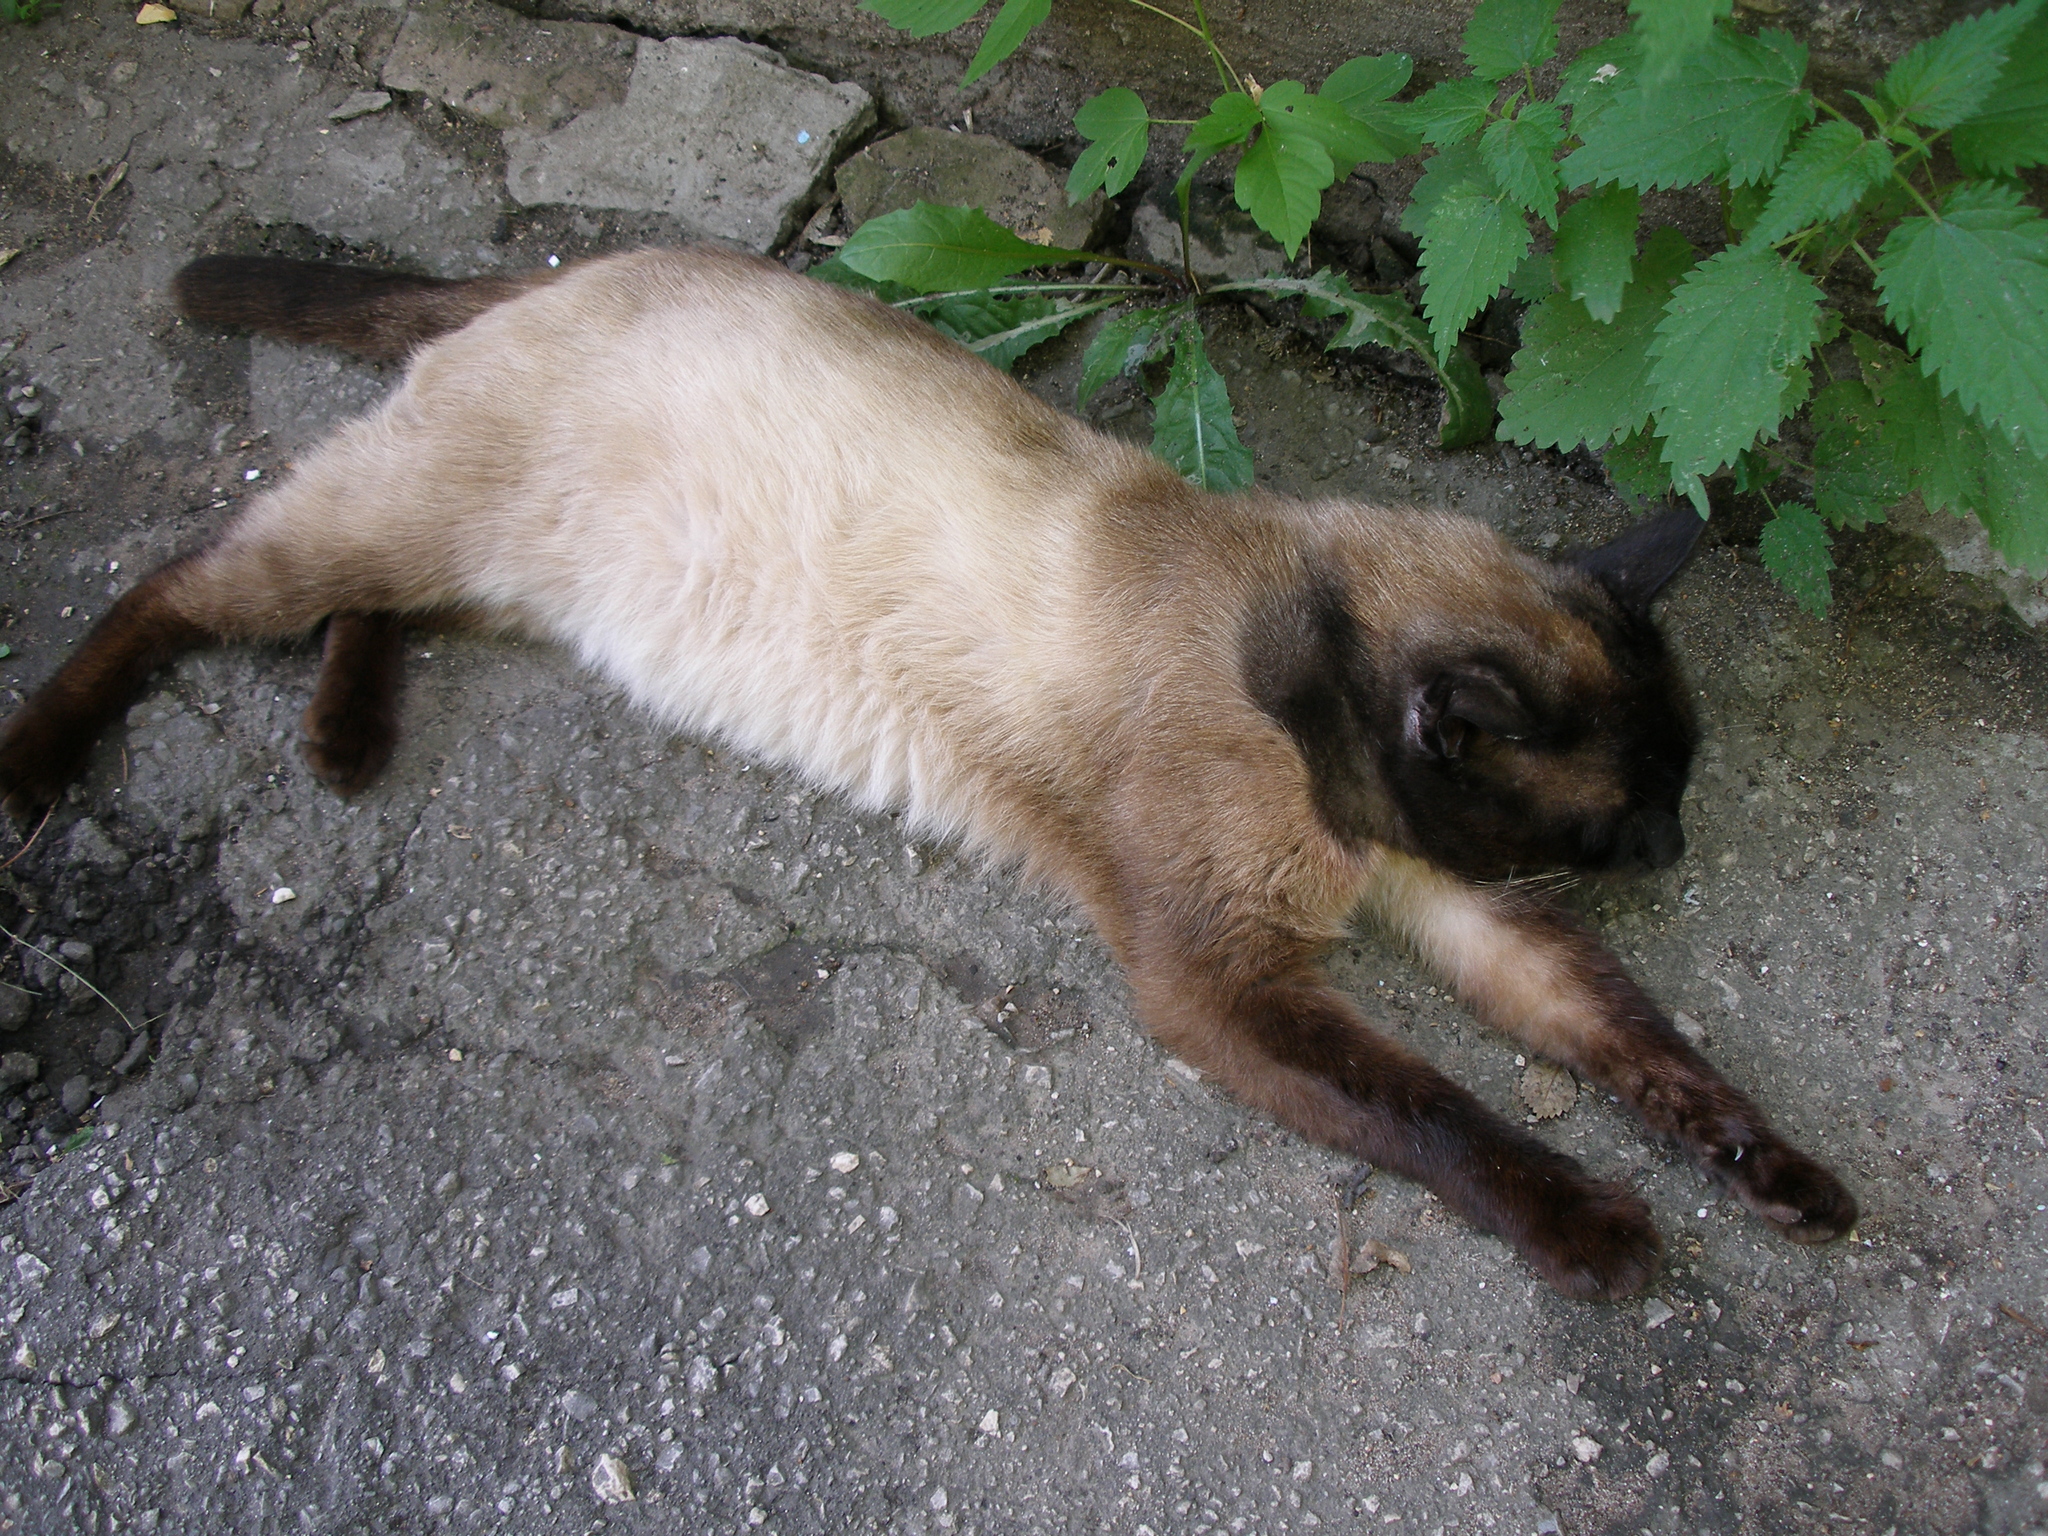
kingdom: Animalia
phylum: Chordata
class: Mammalia
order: Carnivora
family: Felidae
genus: Felis
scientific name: Felis catus
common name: Domestic cat
